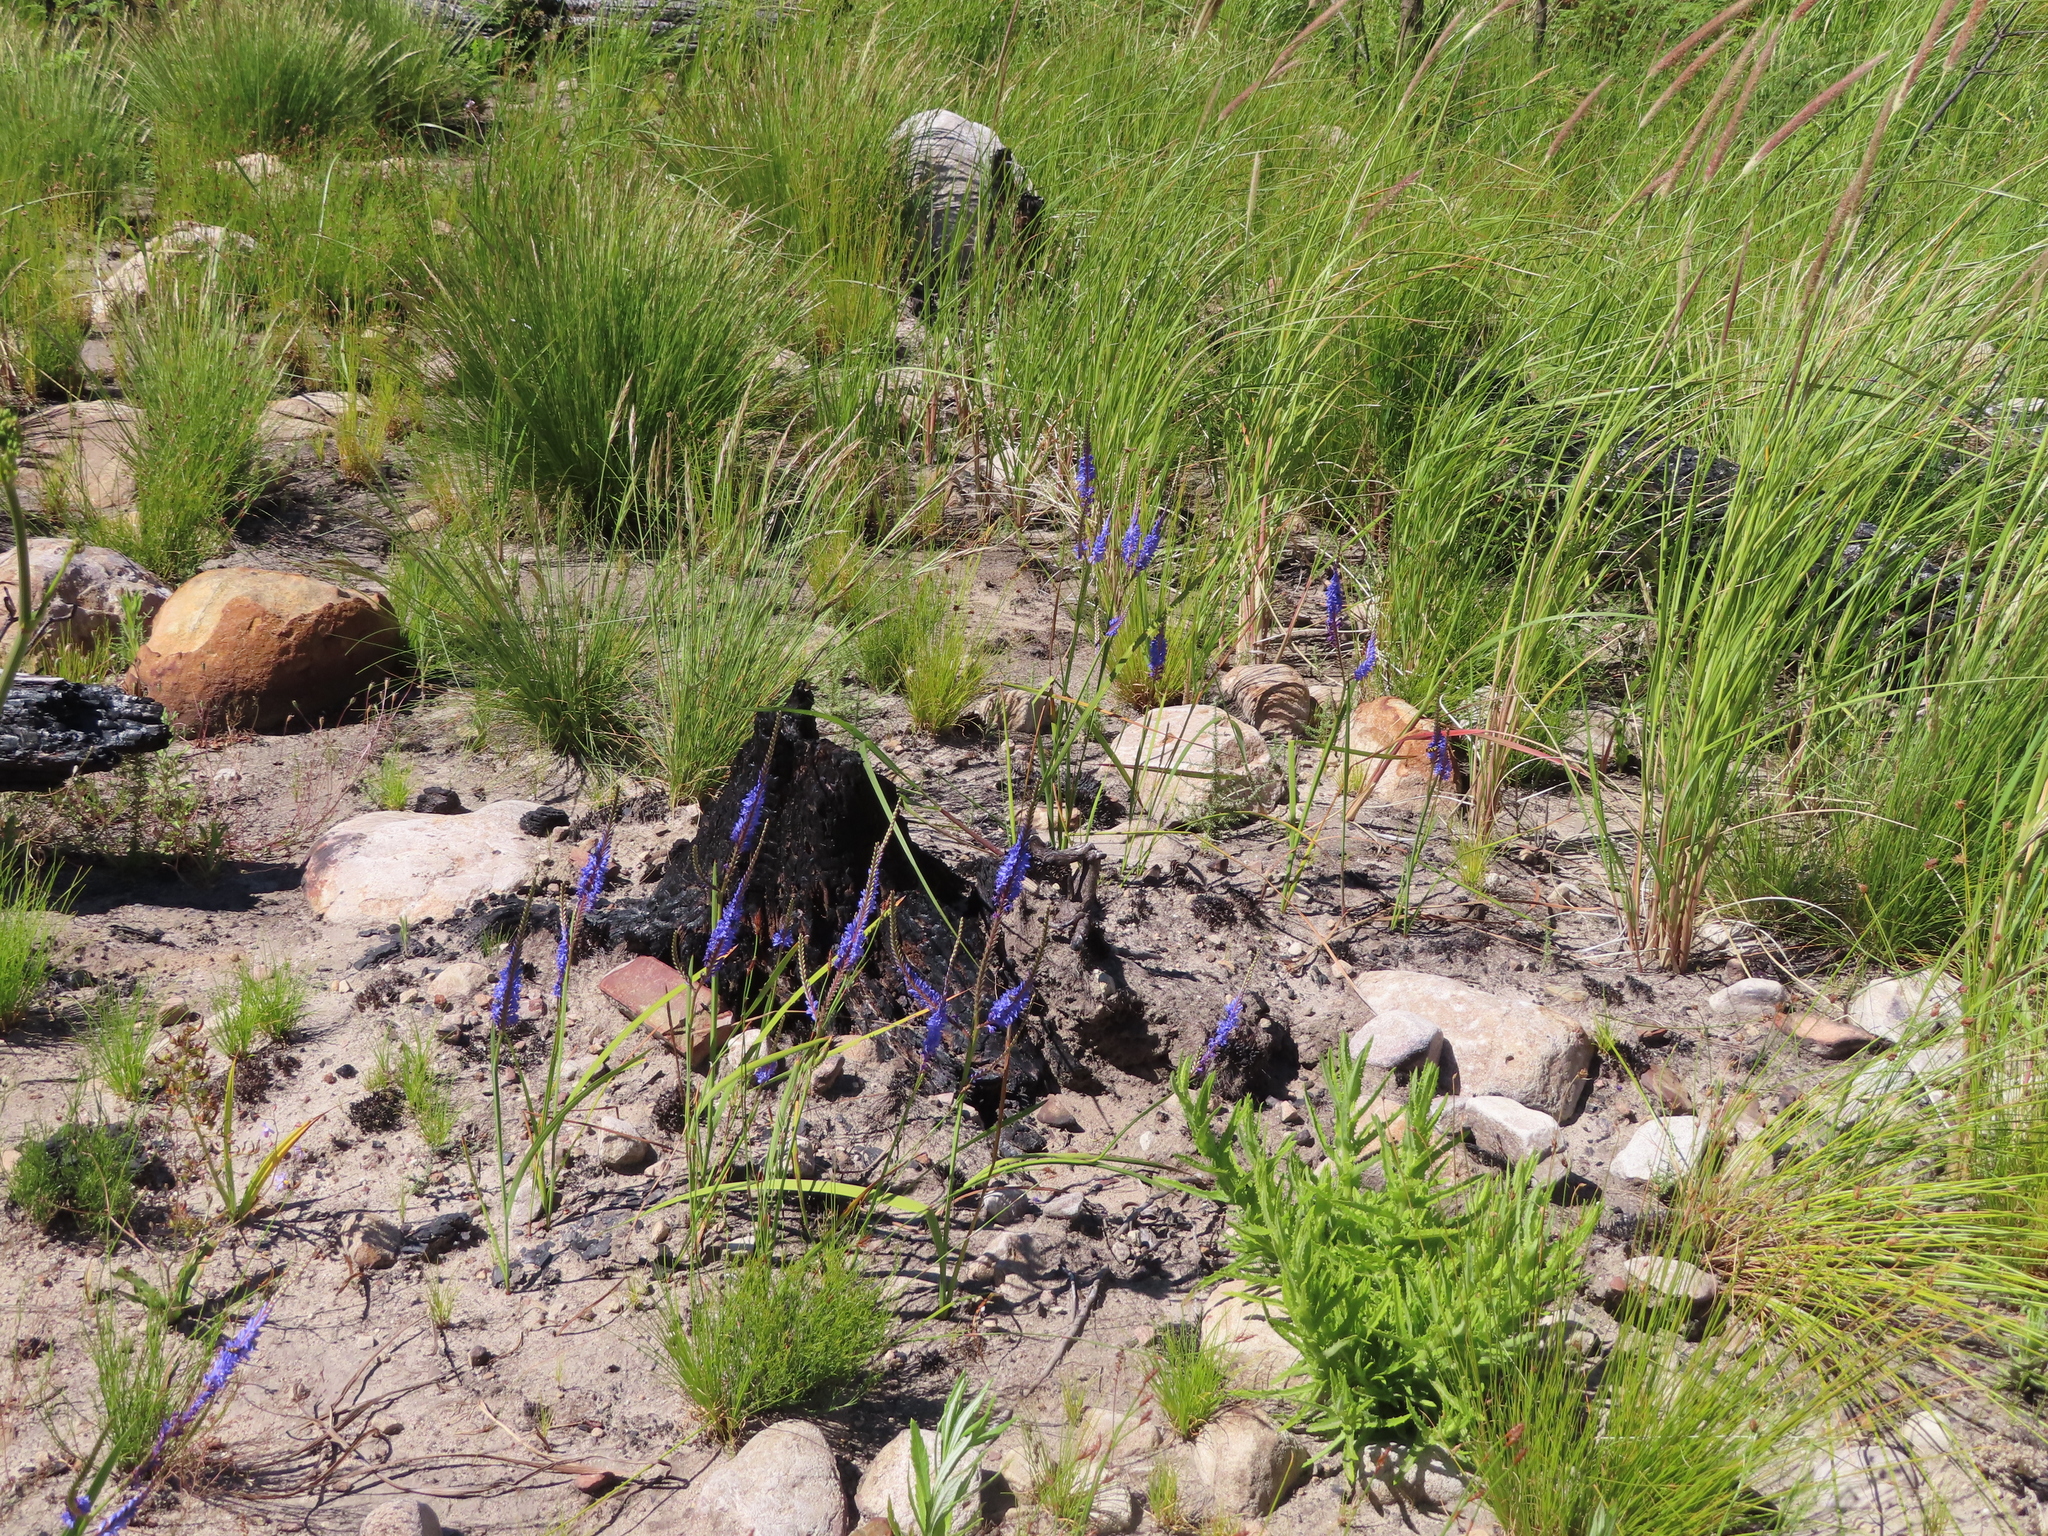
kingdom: Plantae
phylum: Tracheophyta
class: Liliopsida
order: Asparagales
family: Iridaceae
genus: Micranthus
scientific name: Micranthus alopecuroides
